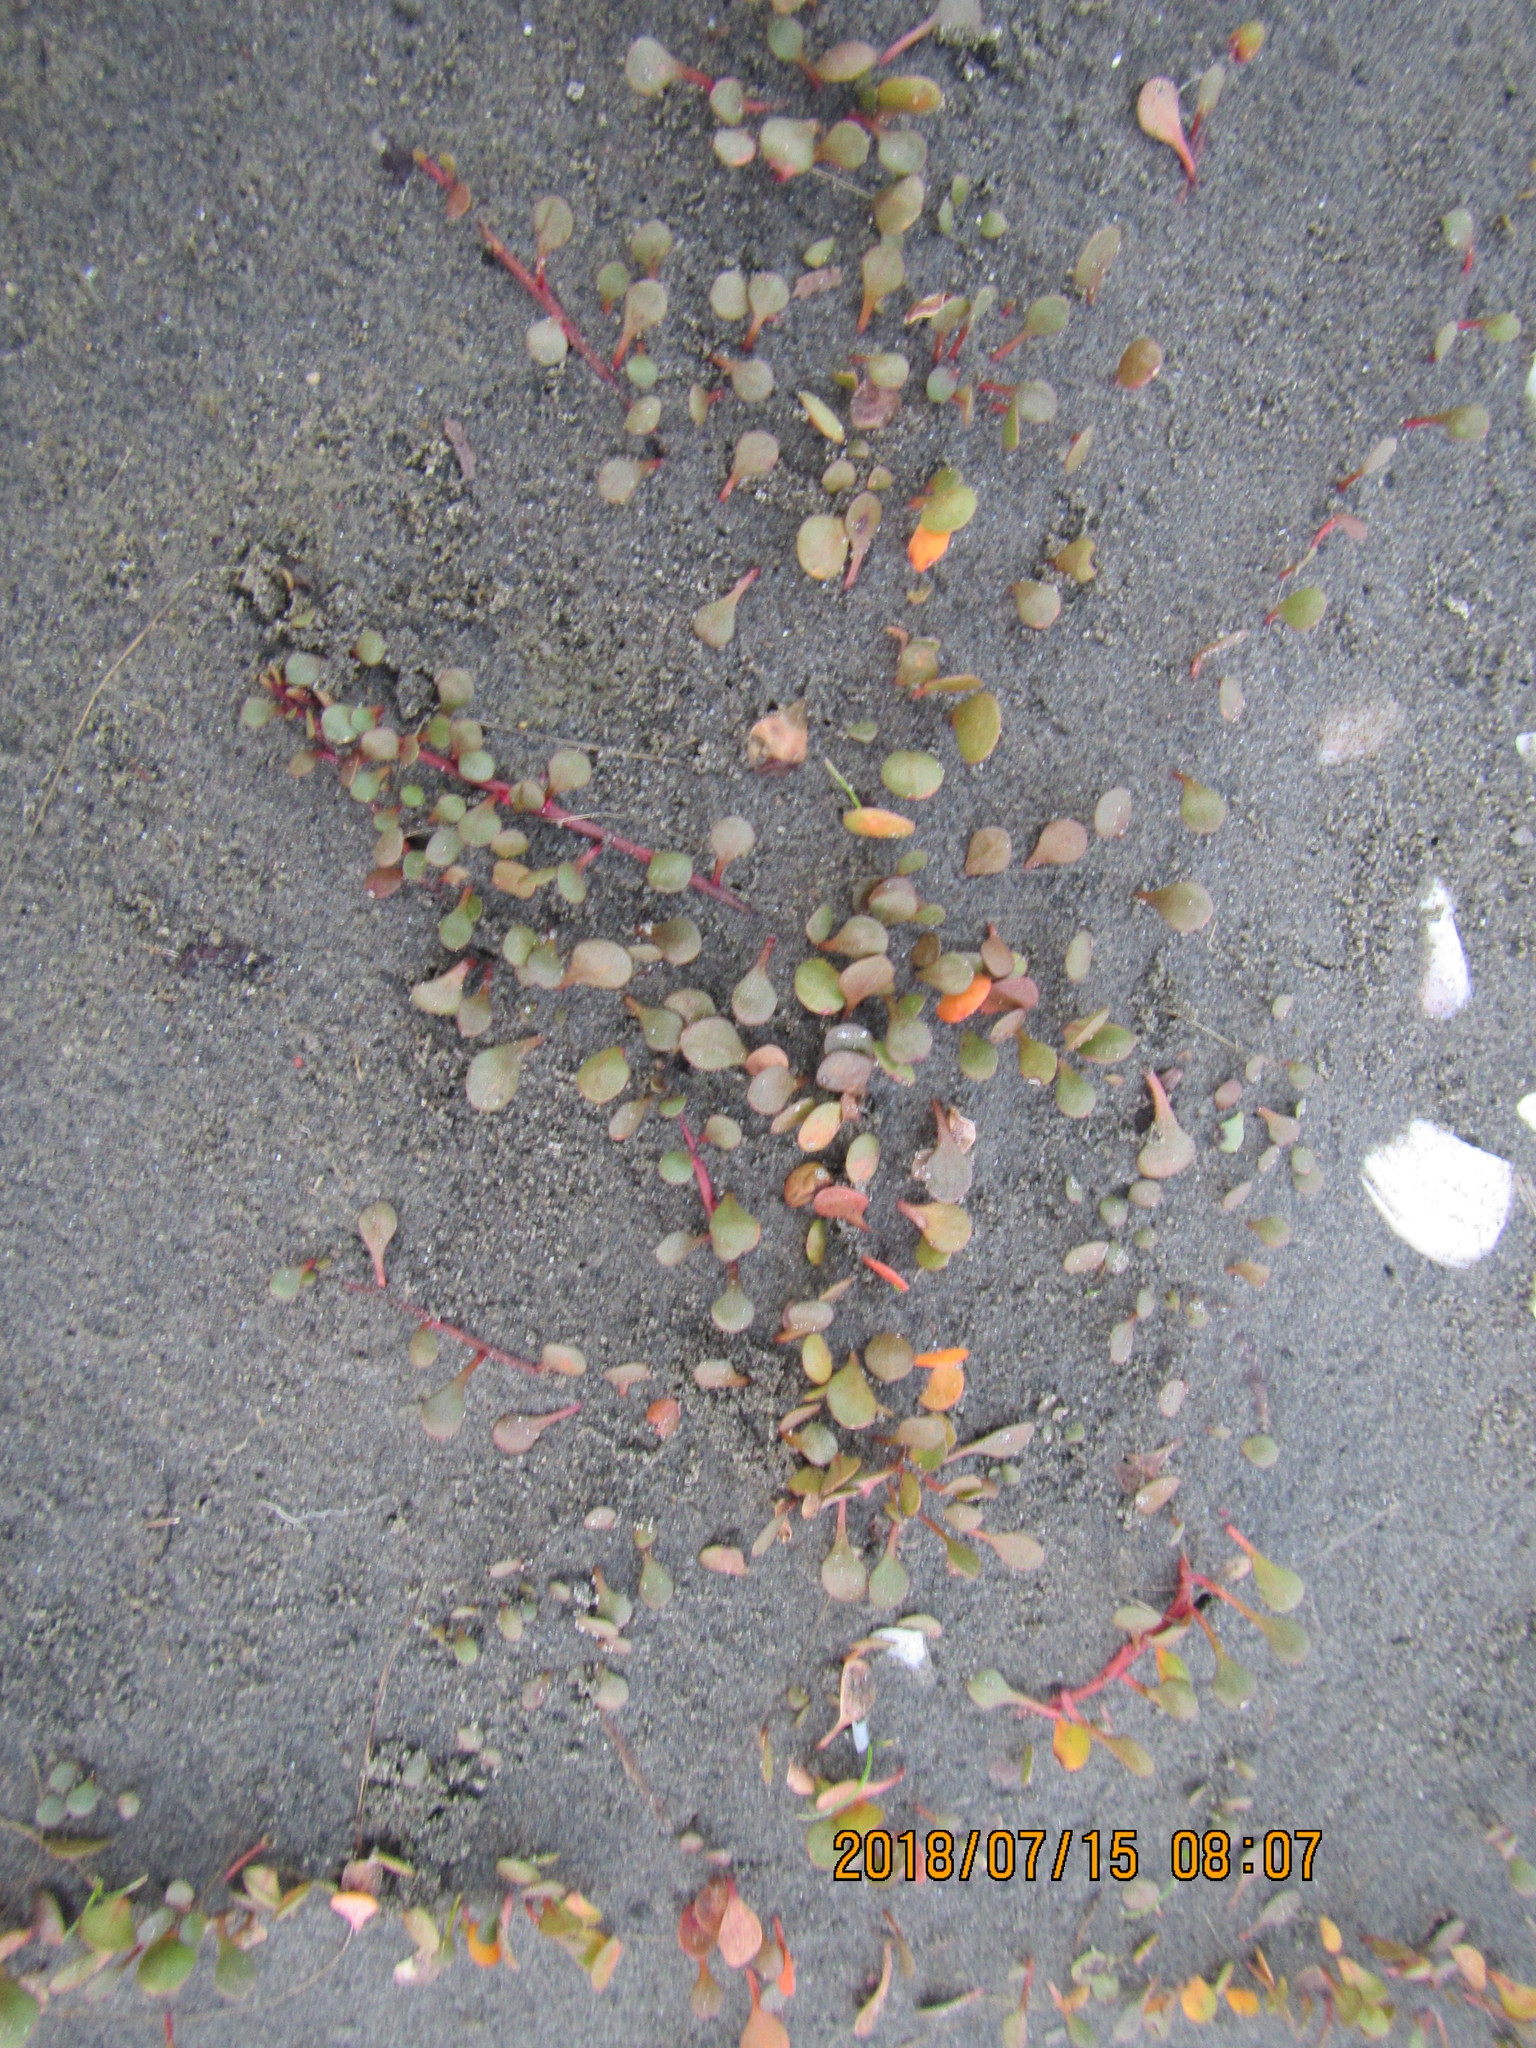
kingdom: Plantae
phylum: Tracheophyta
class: Magnoliopsida
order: Ericales
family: Primulaceae
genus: Samolus
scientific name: Samolus repens
